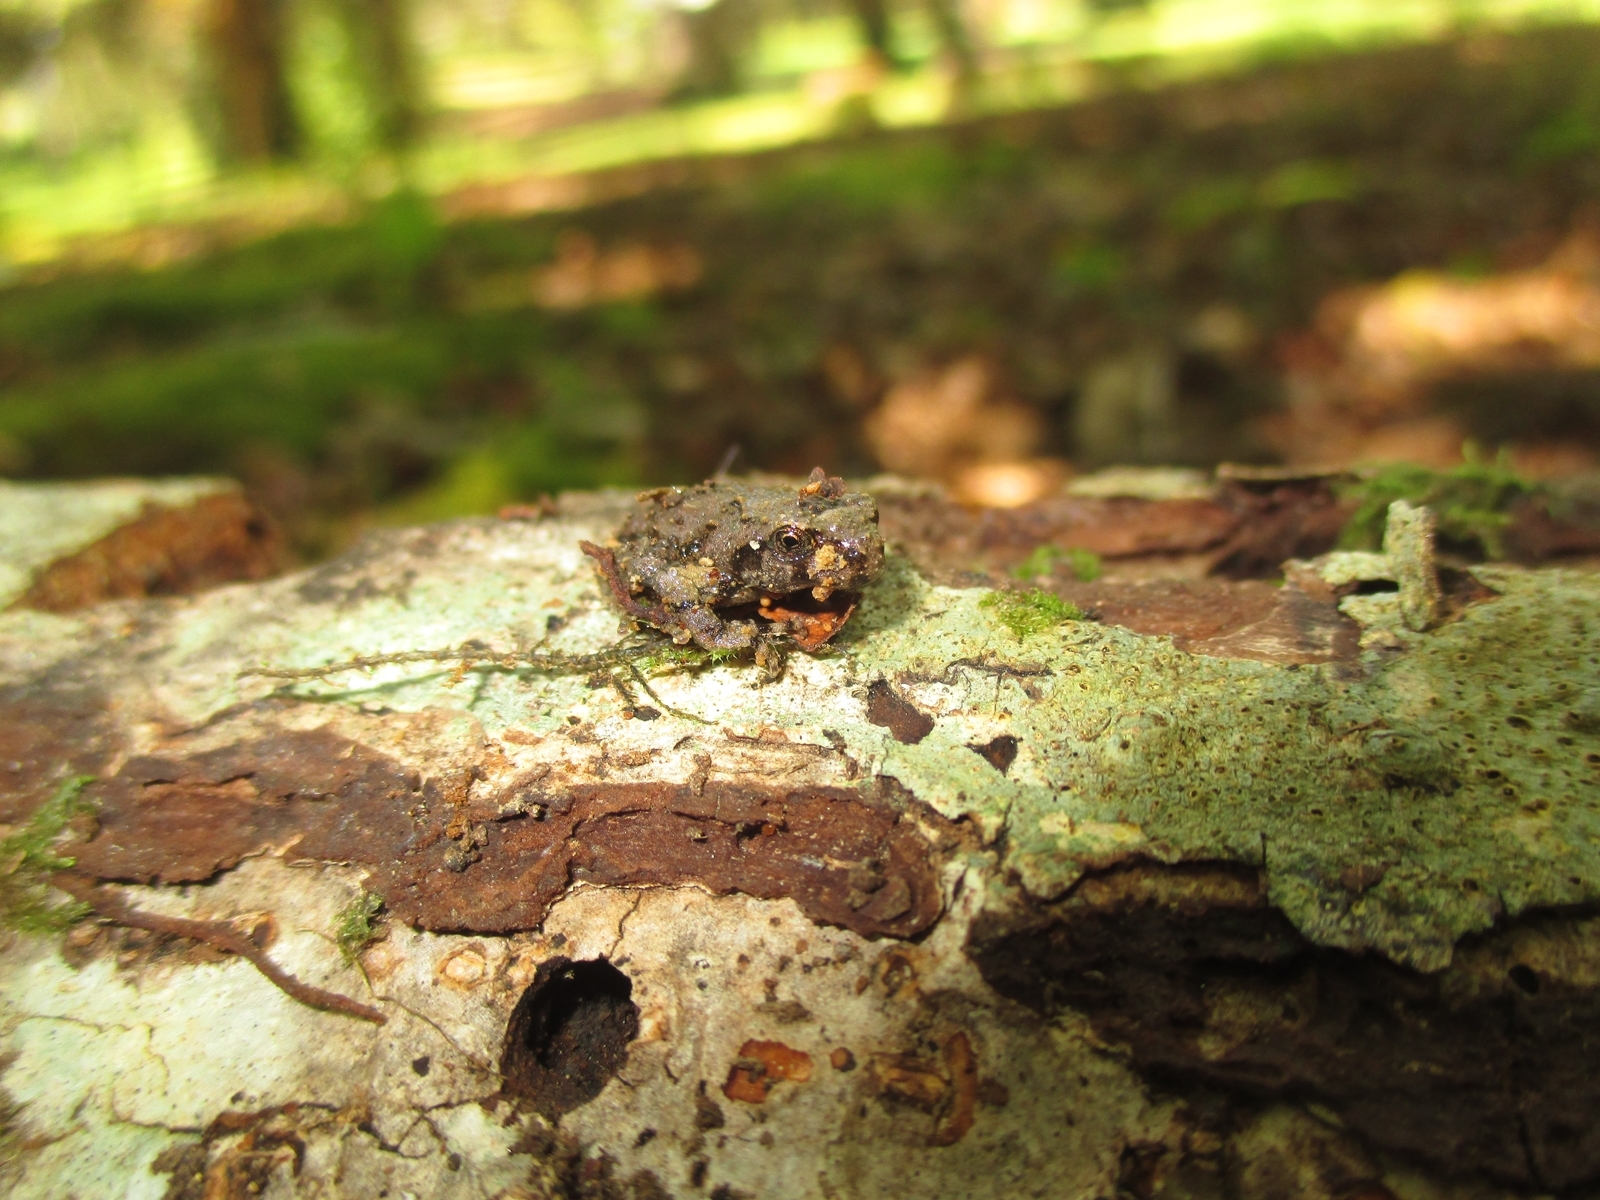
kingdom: Animalia
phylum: Chordata
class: Amphibia
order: Anura
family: Batrachylidae
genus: Batrachyla
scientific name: Batrachyla leptopus
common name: Gray wood frog
